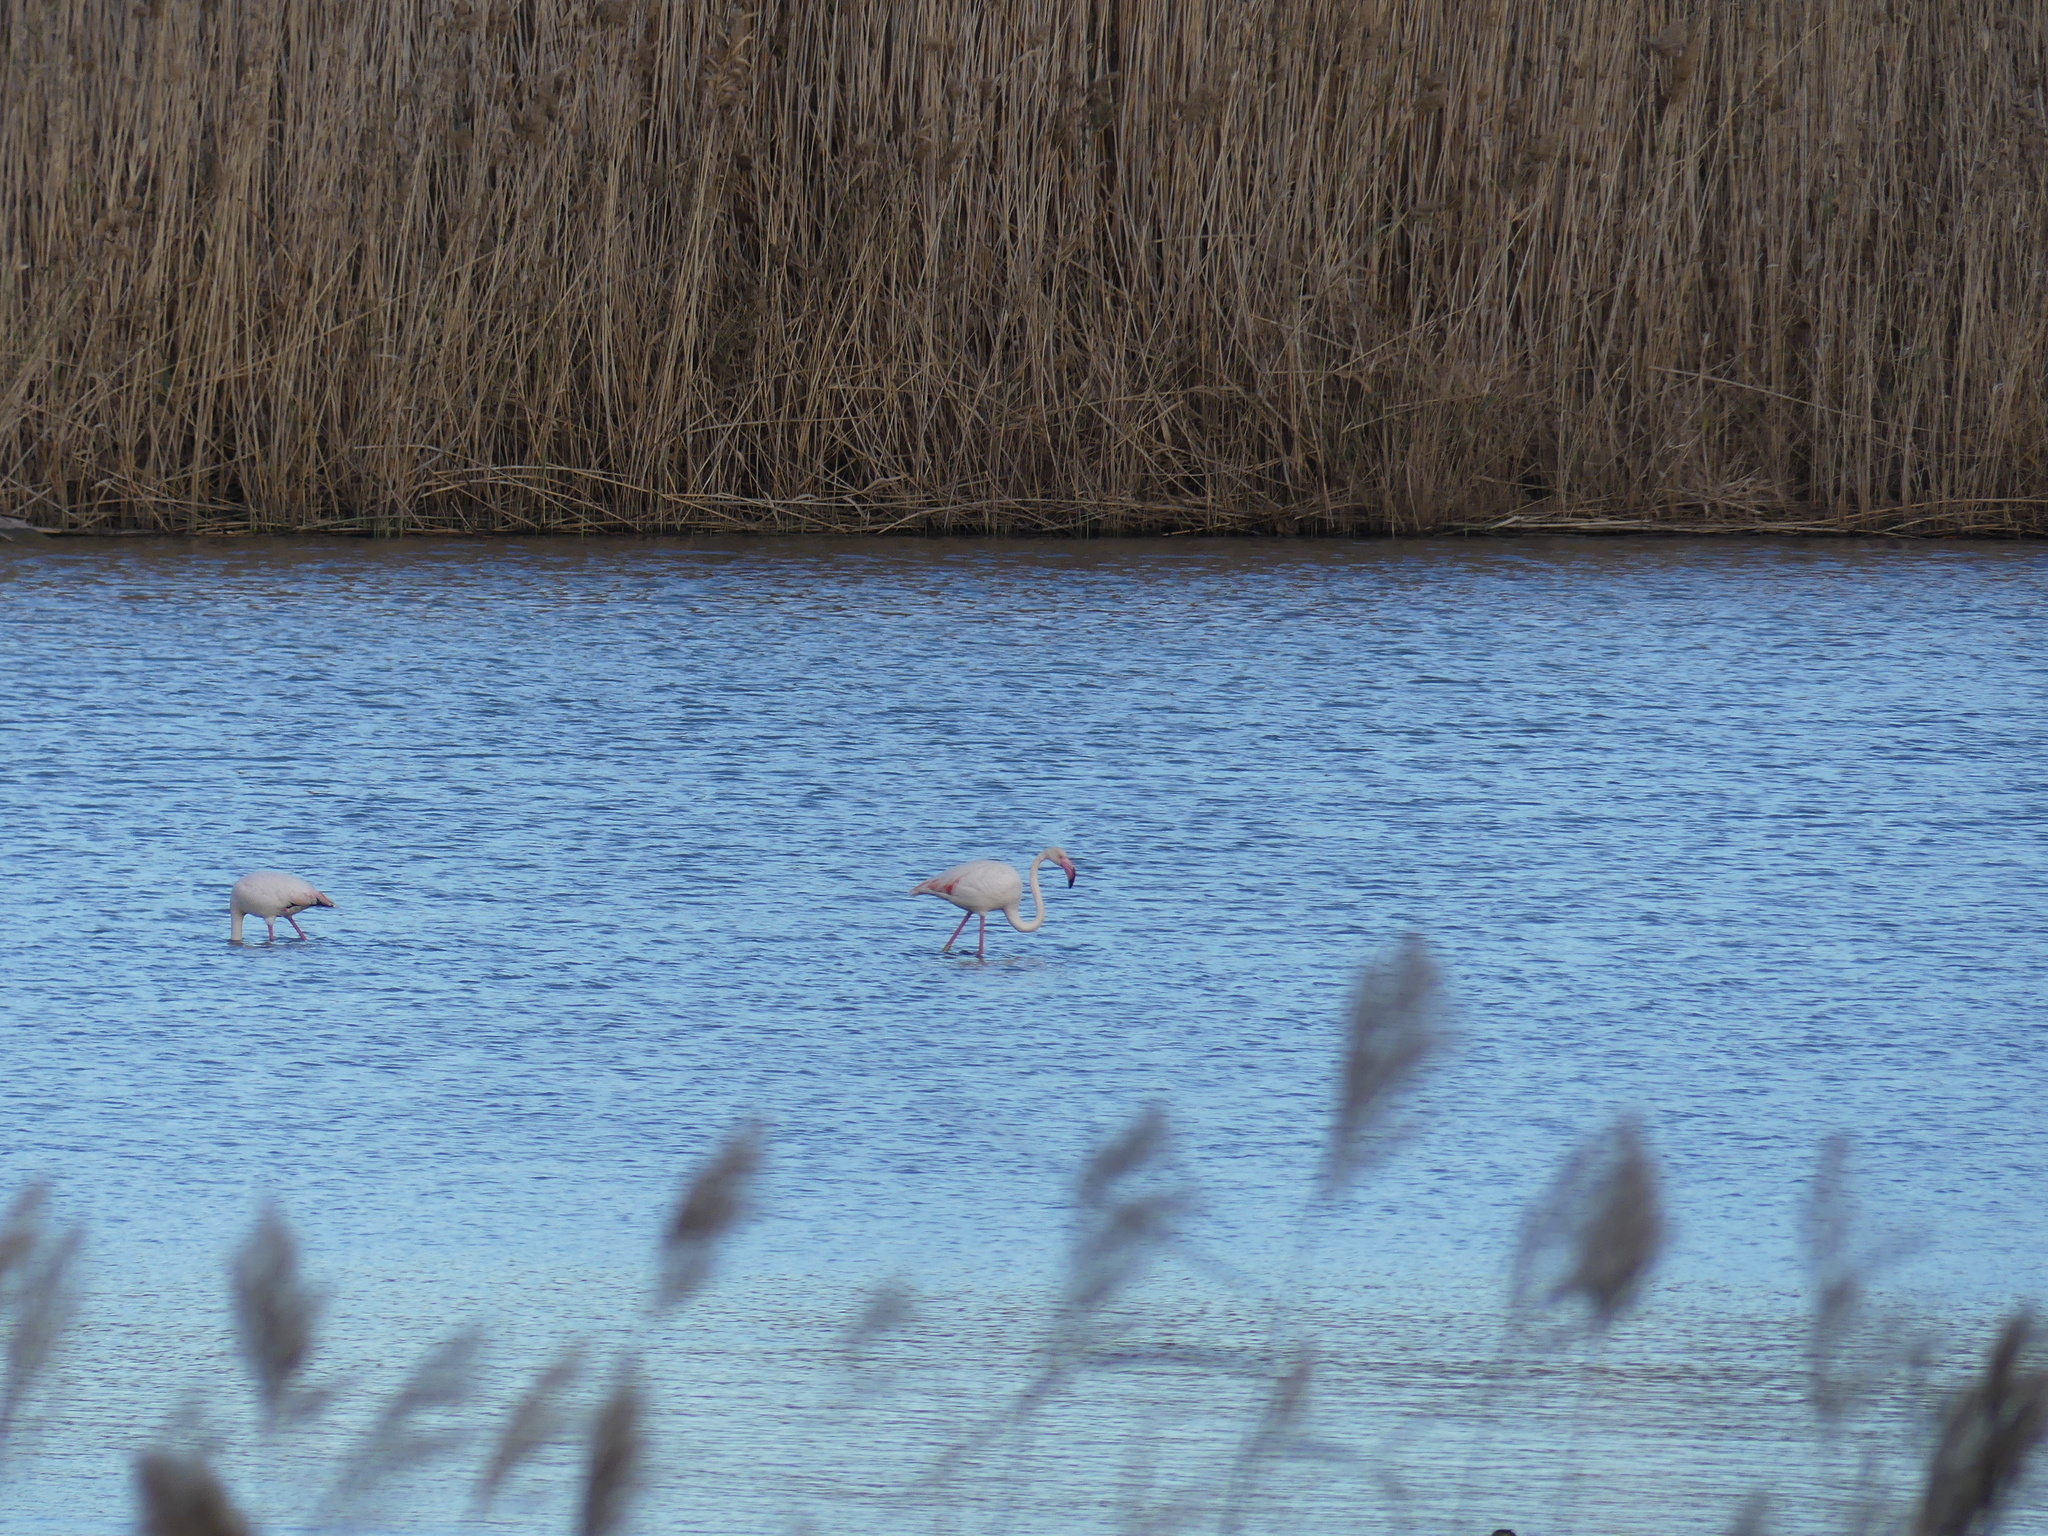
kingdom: Animalia
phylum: Chordata
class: Aves
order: Phoenicopteriformes
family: Phoenicopteridae
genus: Phoenicopterus
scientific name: Phoenicopterus roseus
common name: Greater flamingo
